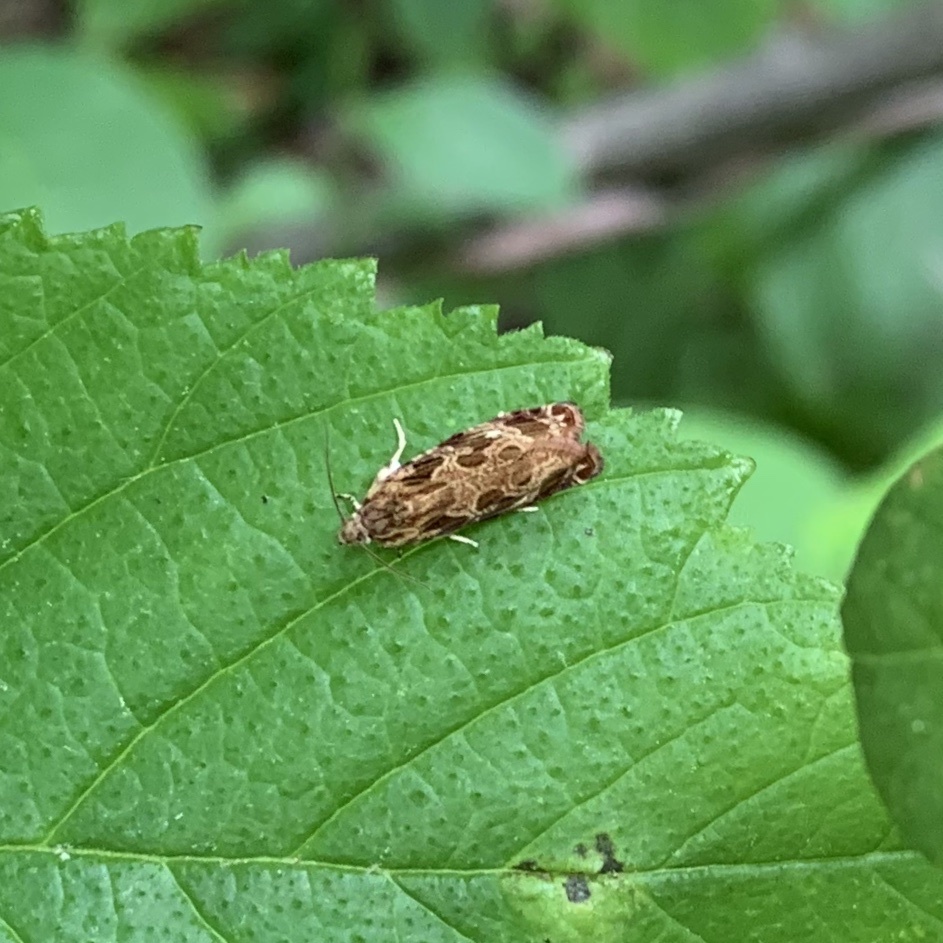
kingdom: Animalia
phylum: Arthropoda
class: Insecta
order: Lepidoptera
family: Tortricidae
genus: Phaecasiophora
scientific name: Phaecasiophora confixana
